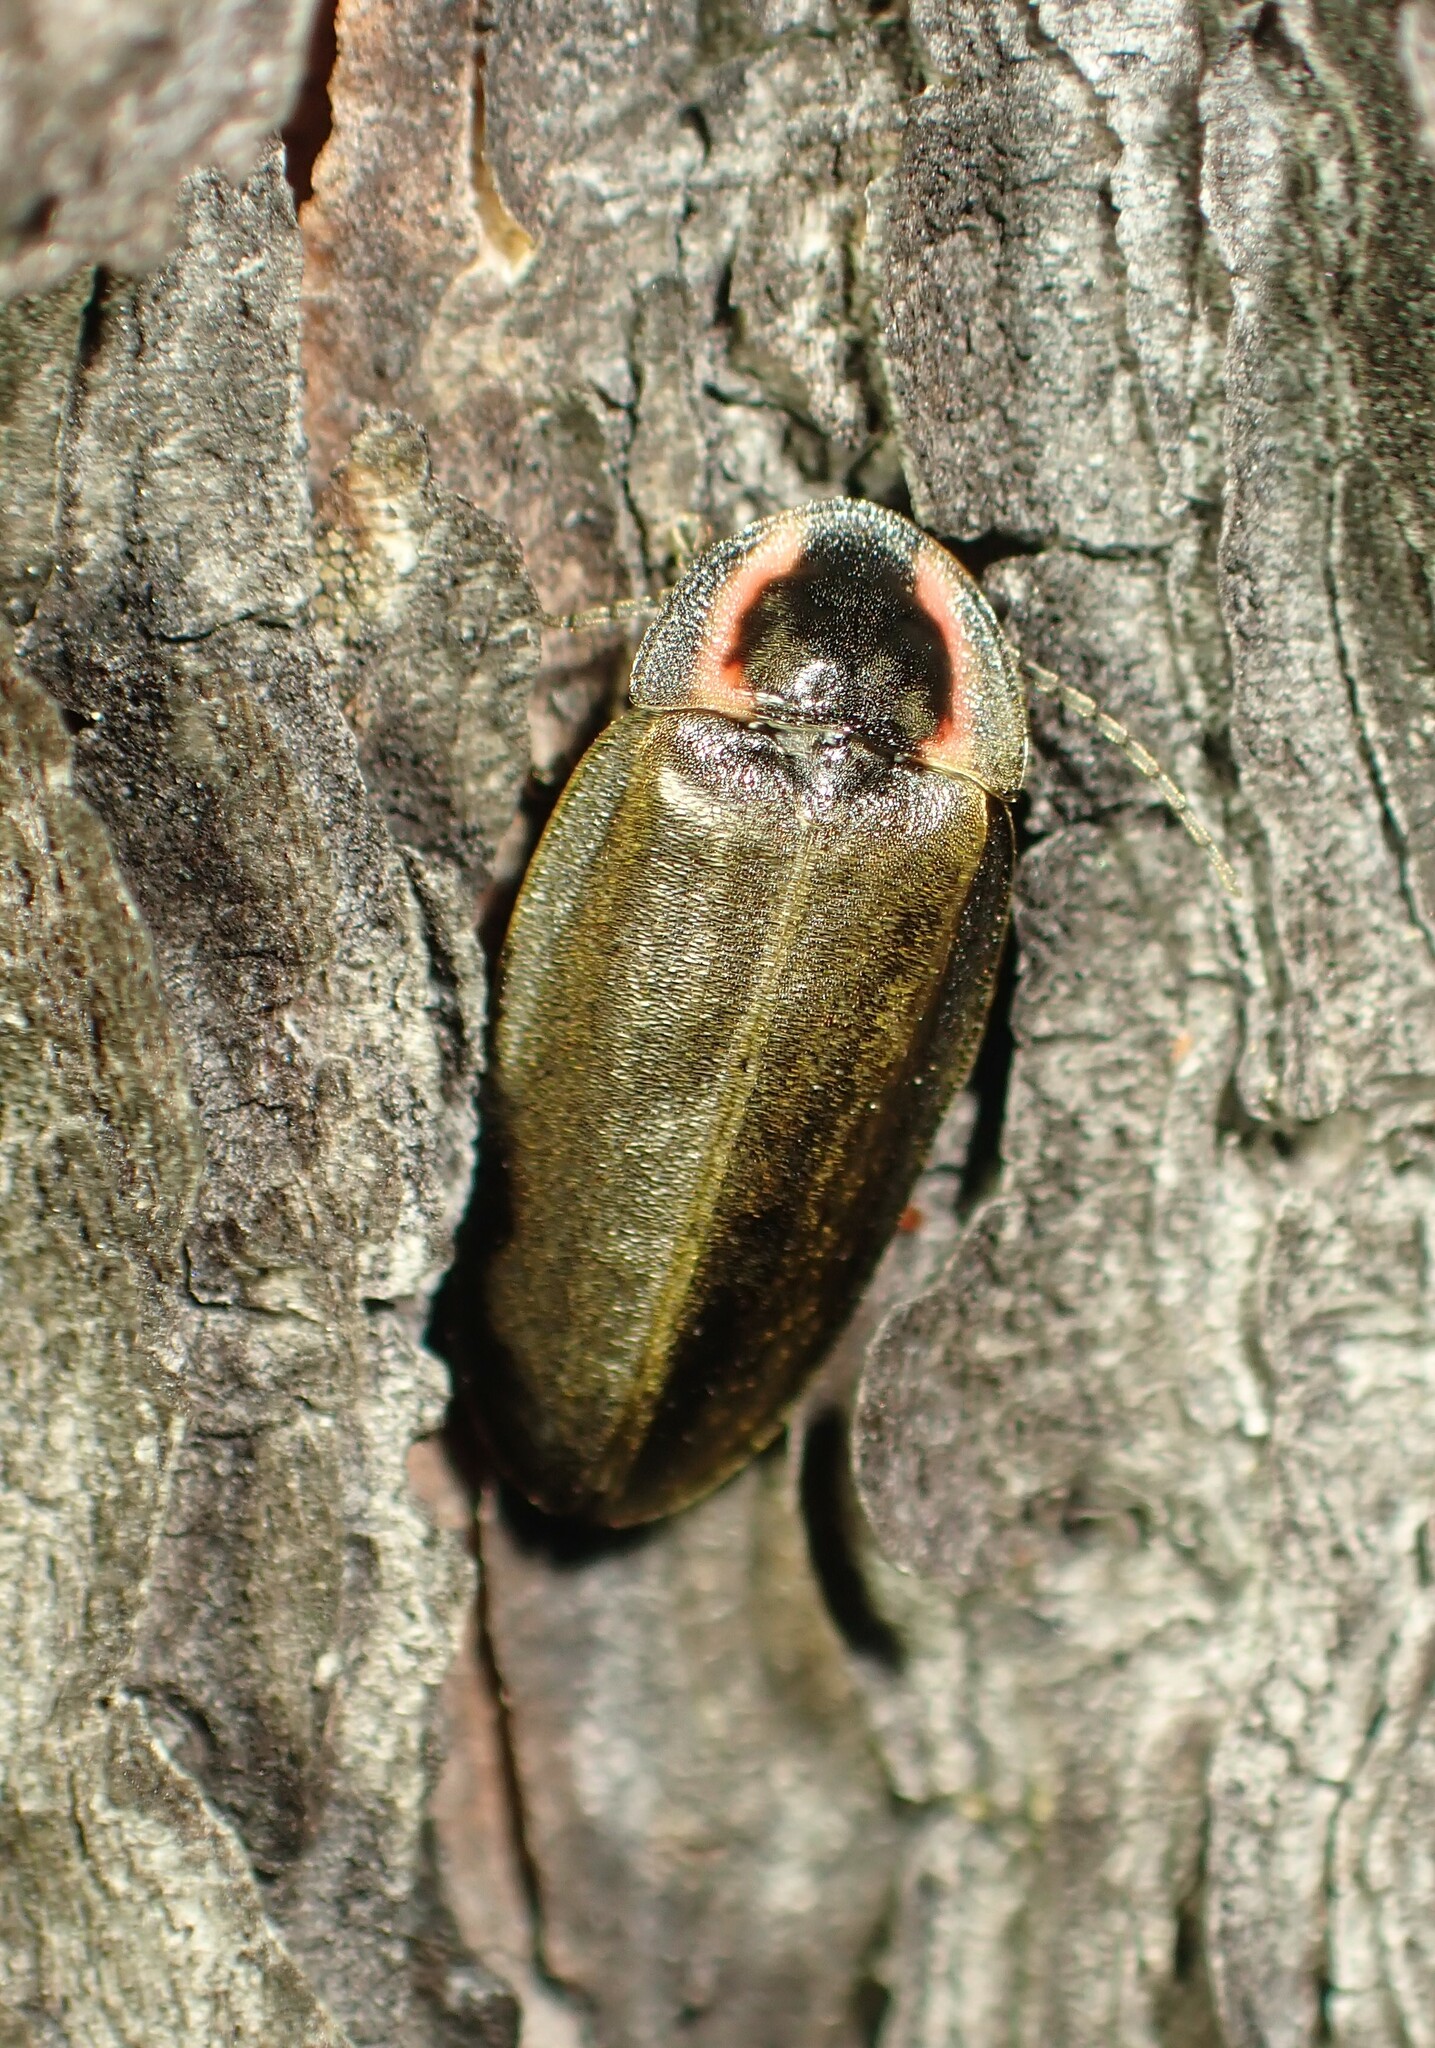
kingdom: Animalia
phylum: Arthropoda
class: Insecta
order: Coleoptera
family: Lampyridae
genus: Photinus
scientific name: Photinus corrusca
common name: Winter firefly
